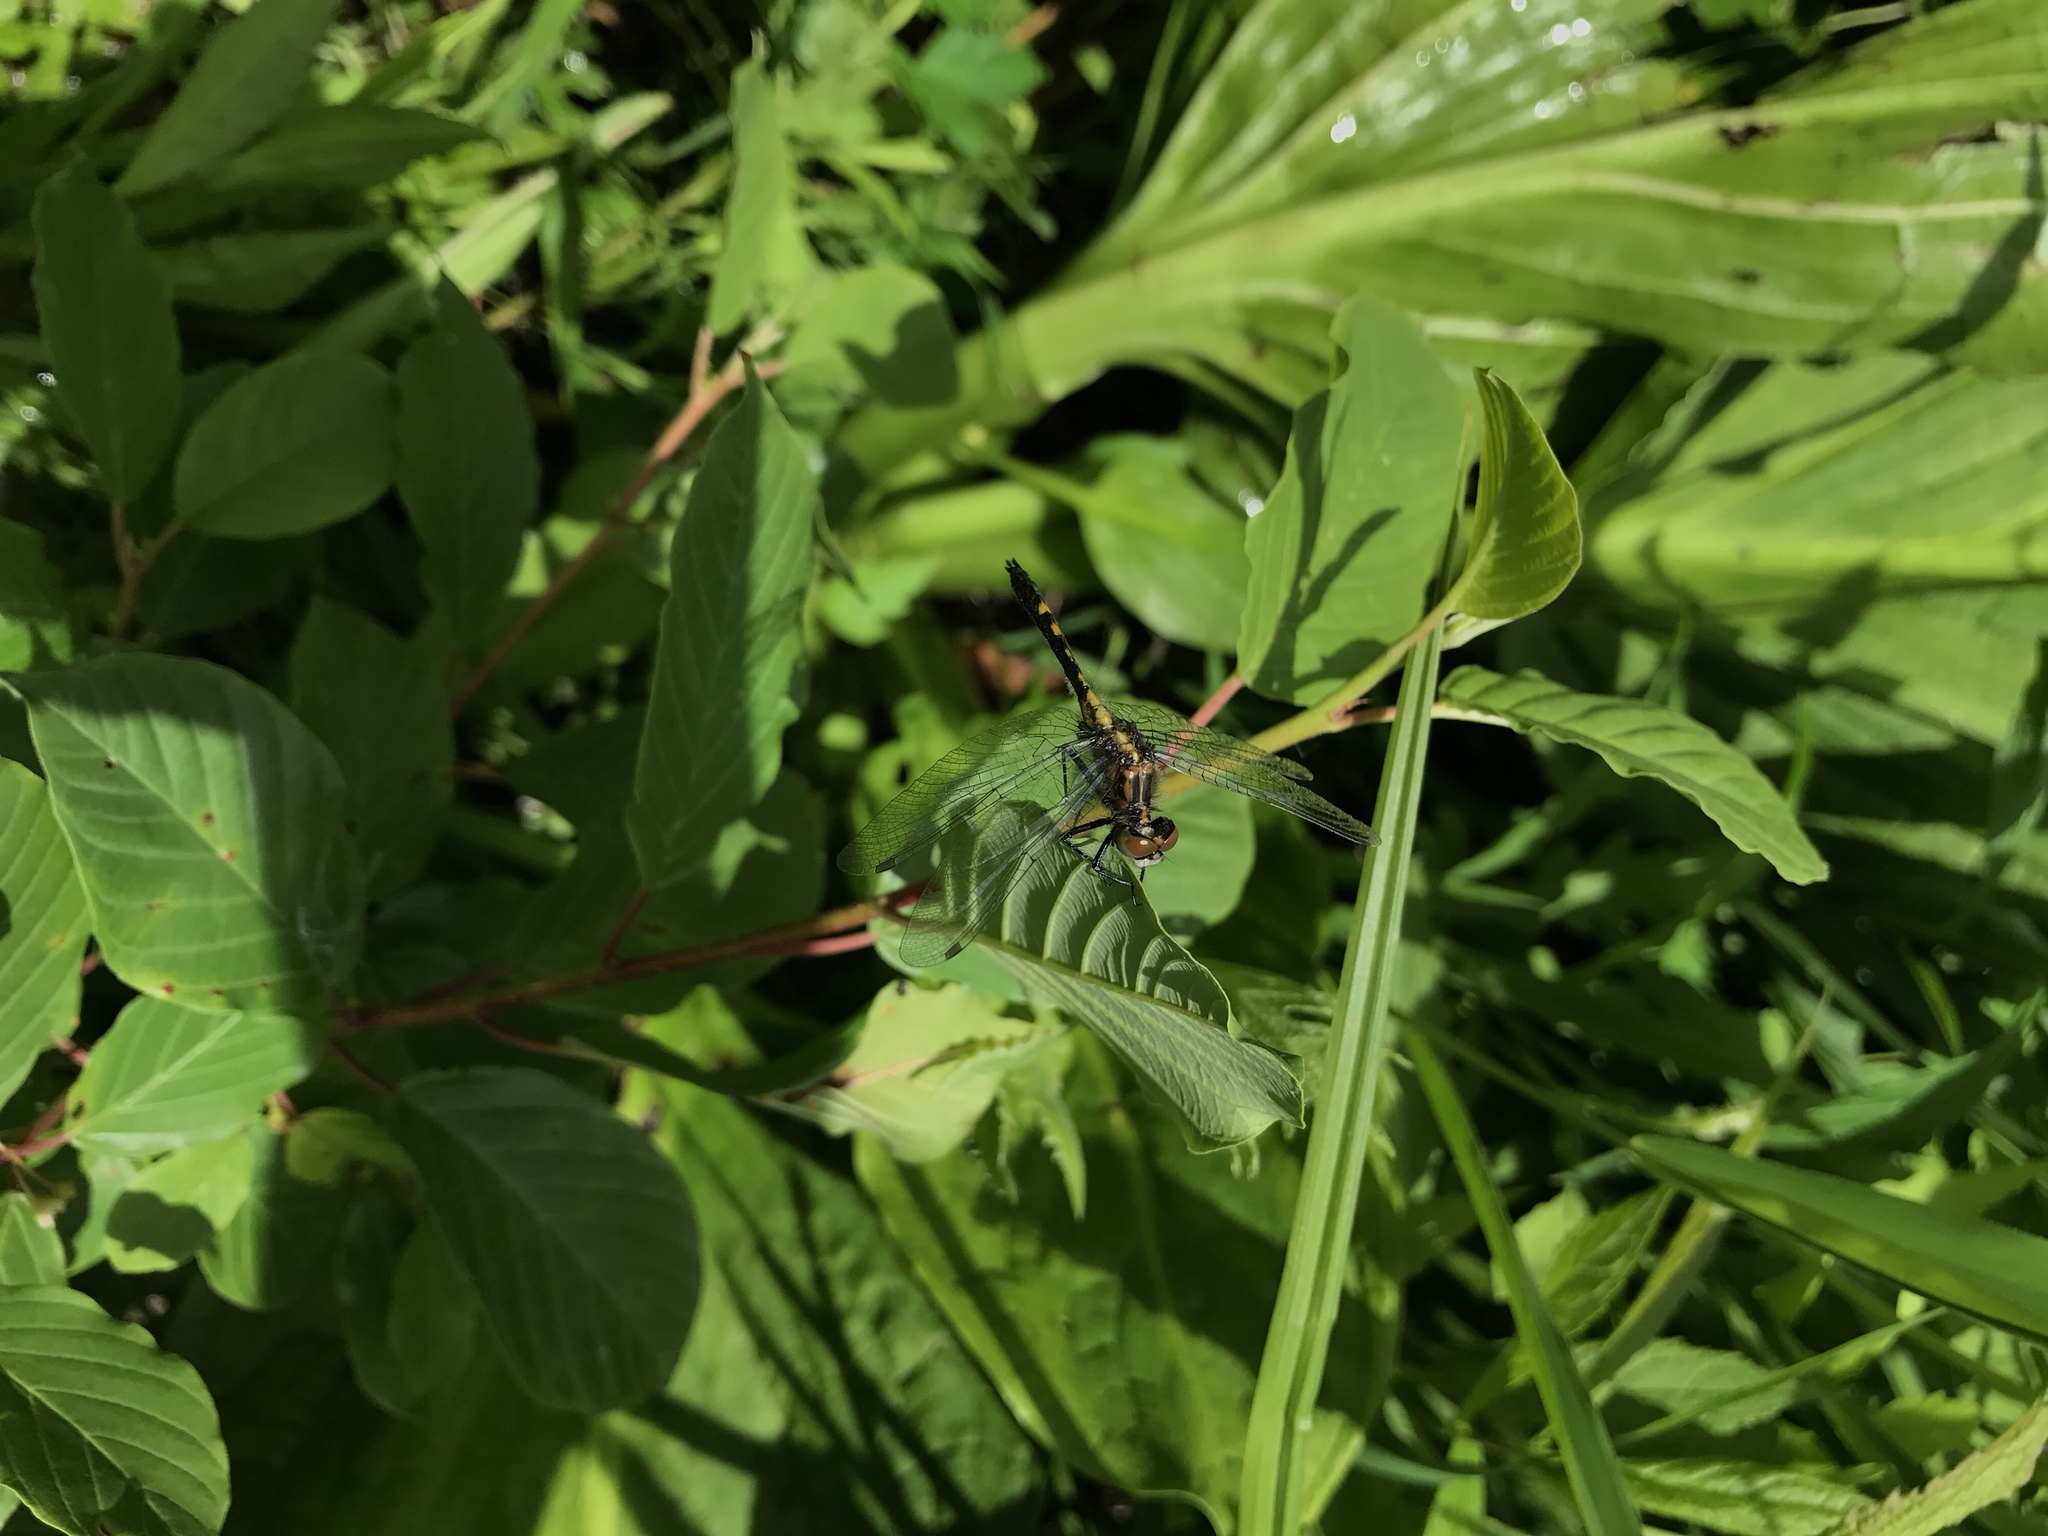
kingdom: Animalia
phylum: Arthropoda
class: Insecta
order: Odonata
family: Libellulidae
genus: Leucorrhinia
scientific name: Leucorrhinia intacta
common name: Dot-tailed whiteface
